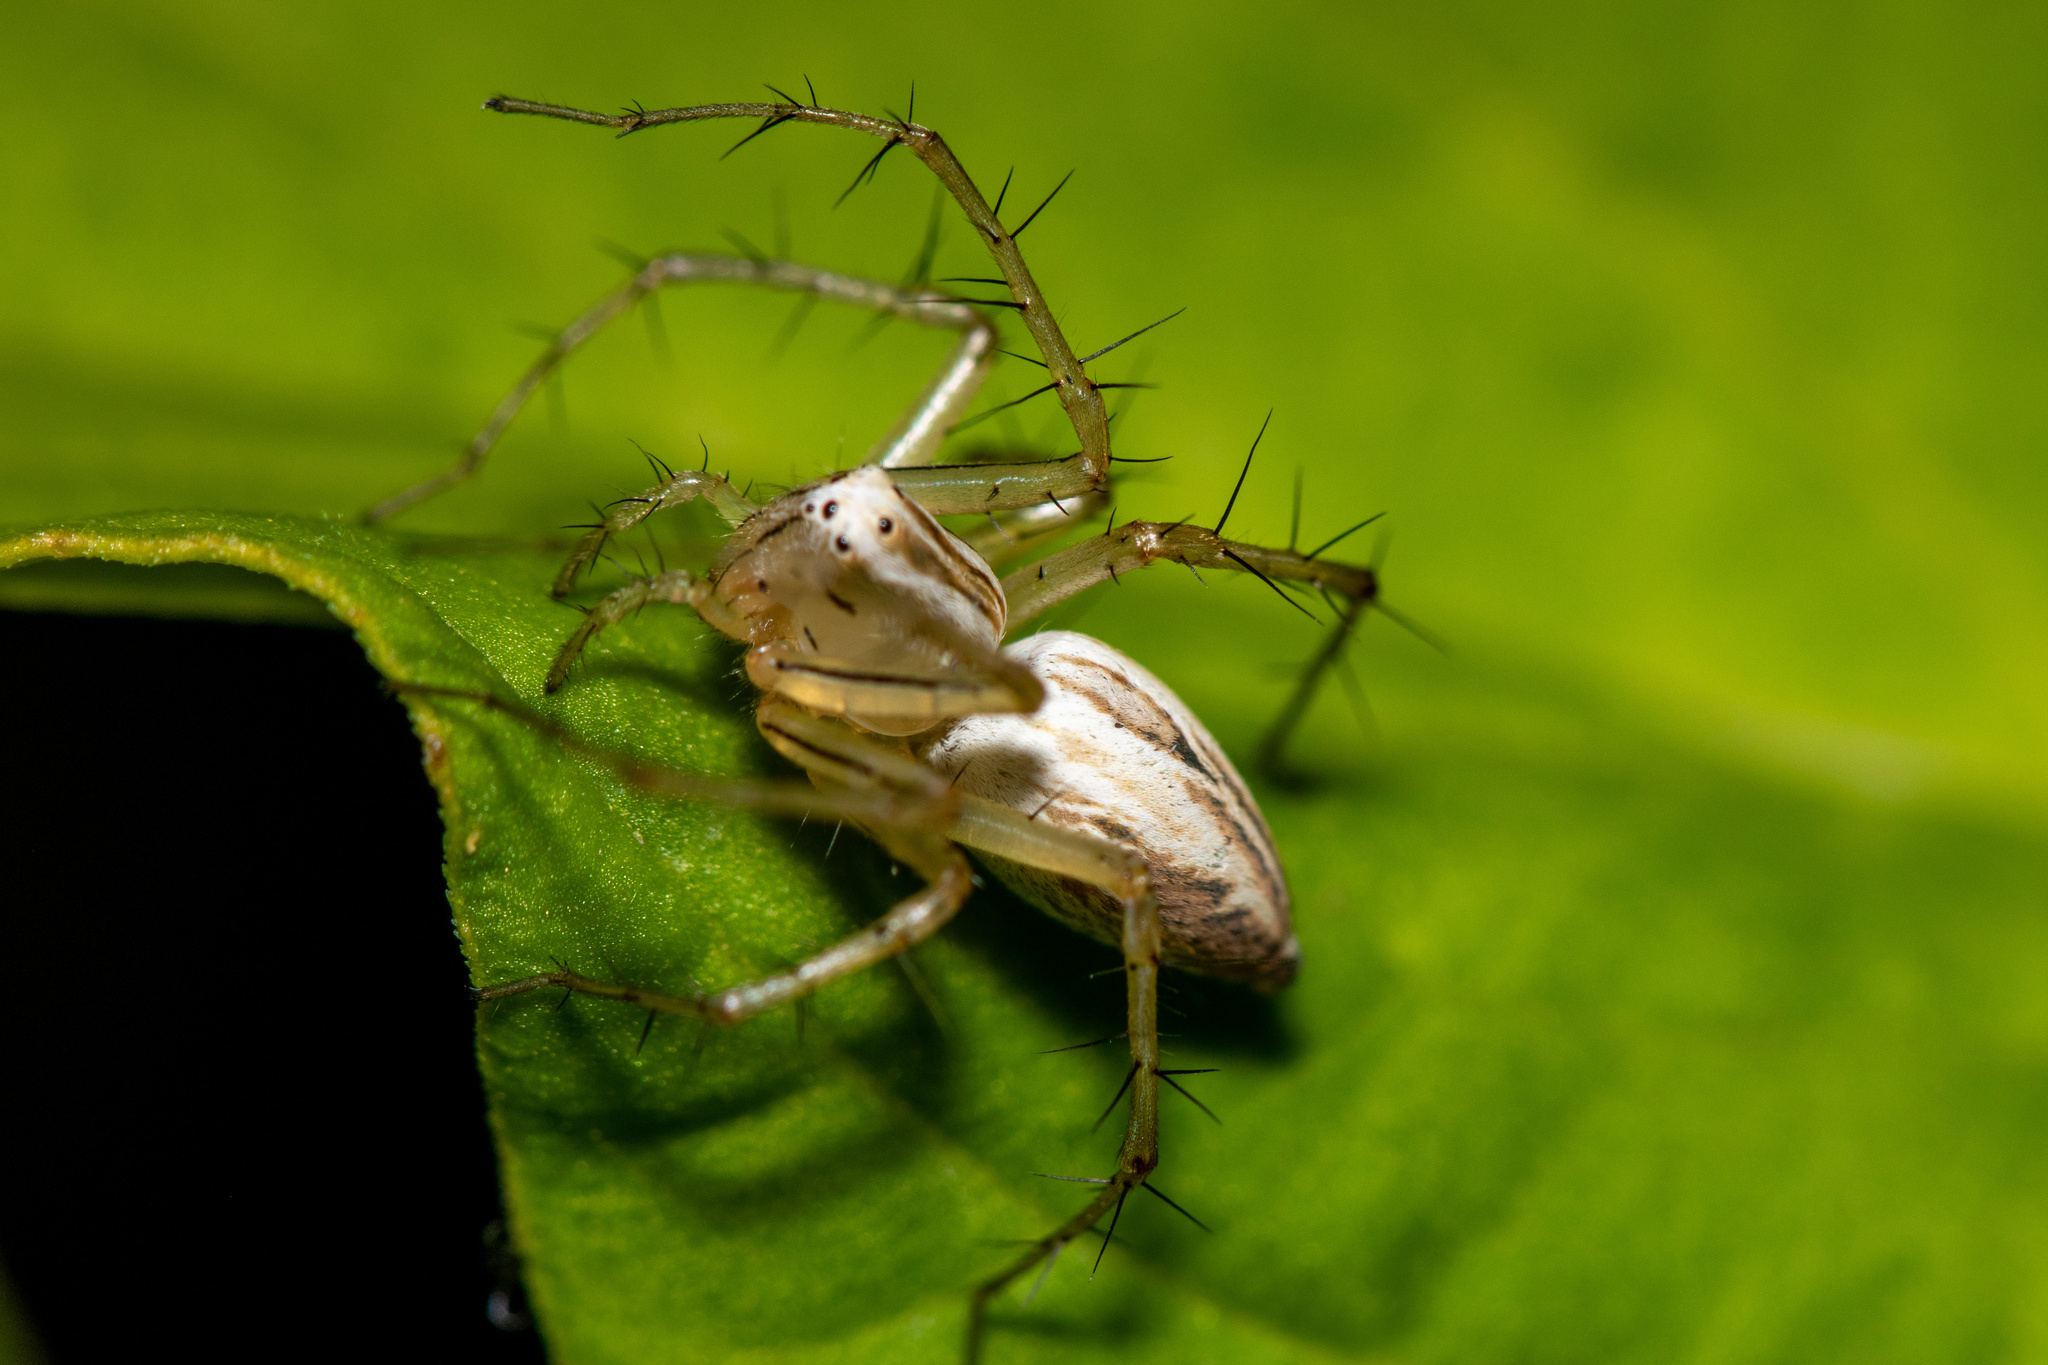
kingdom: Animalia
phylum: Arthropoda
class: Arachnida
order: Araneae
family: Oxyopidae
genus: Oxyopes
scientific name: Oxyopes salticus
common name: Lynx spiders
